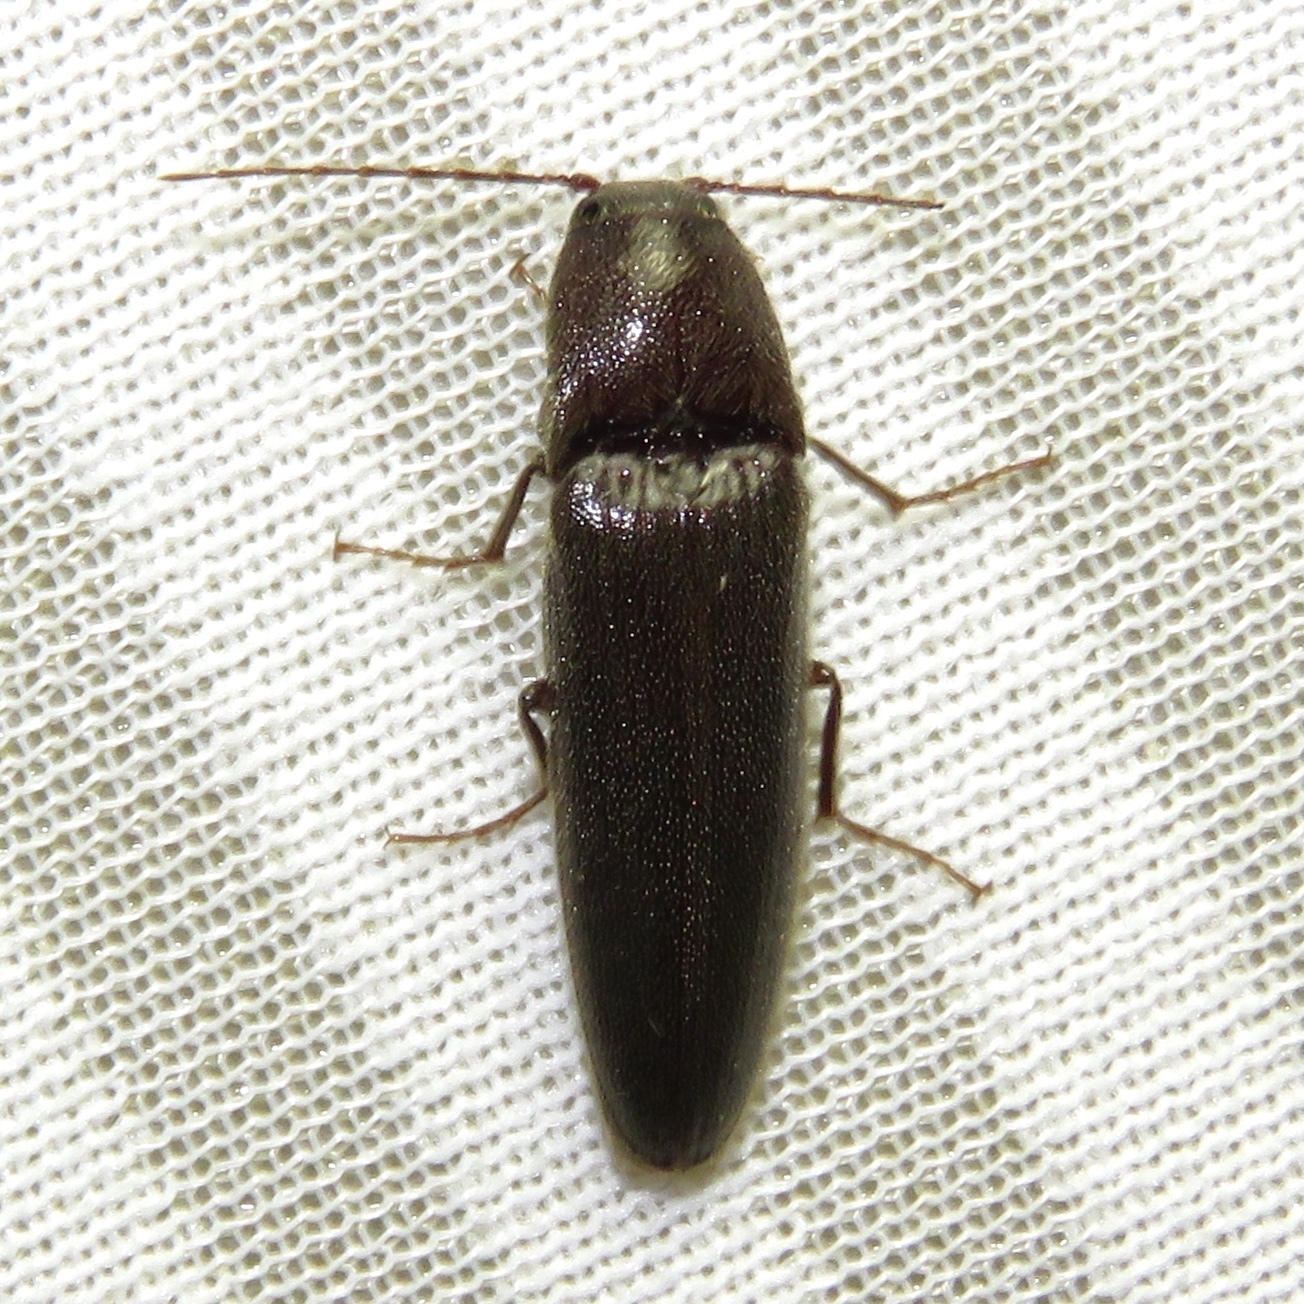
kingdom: Animalia
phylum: Arthropoda
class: Insecta
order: Coleoptera
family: Elateridae
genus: Melanotus
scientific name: Melanotus castanipes
